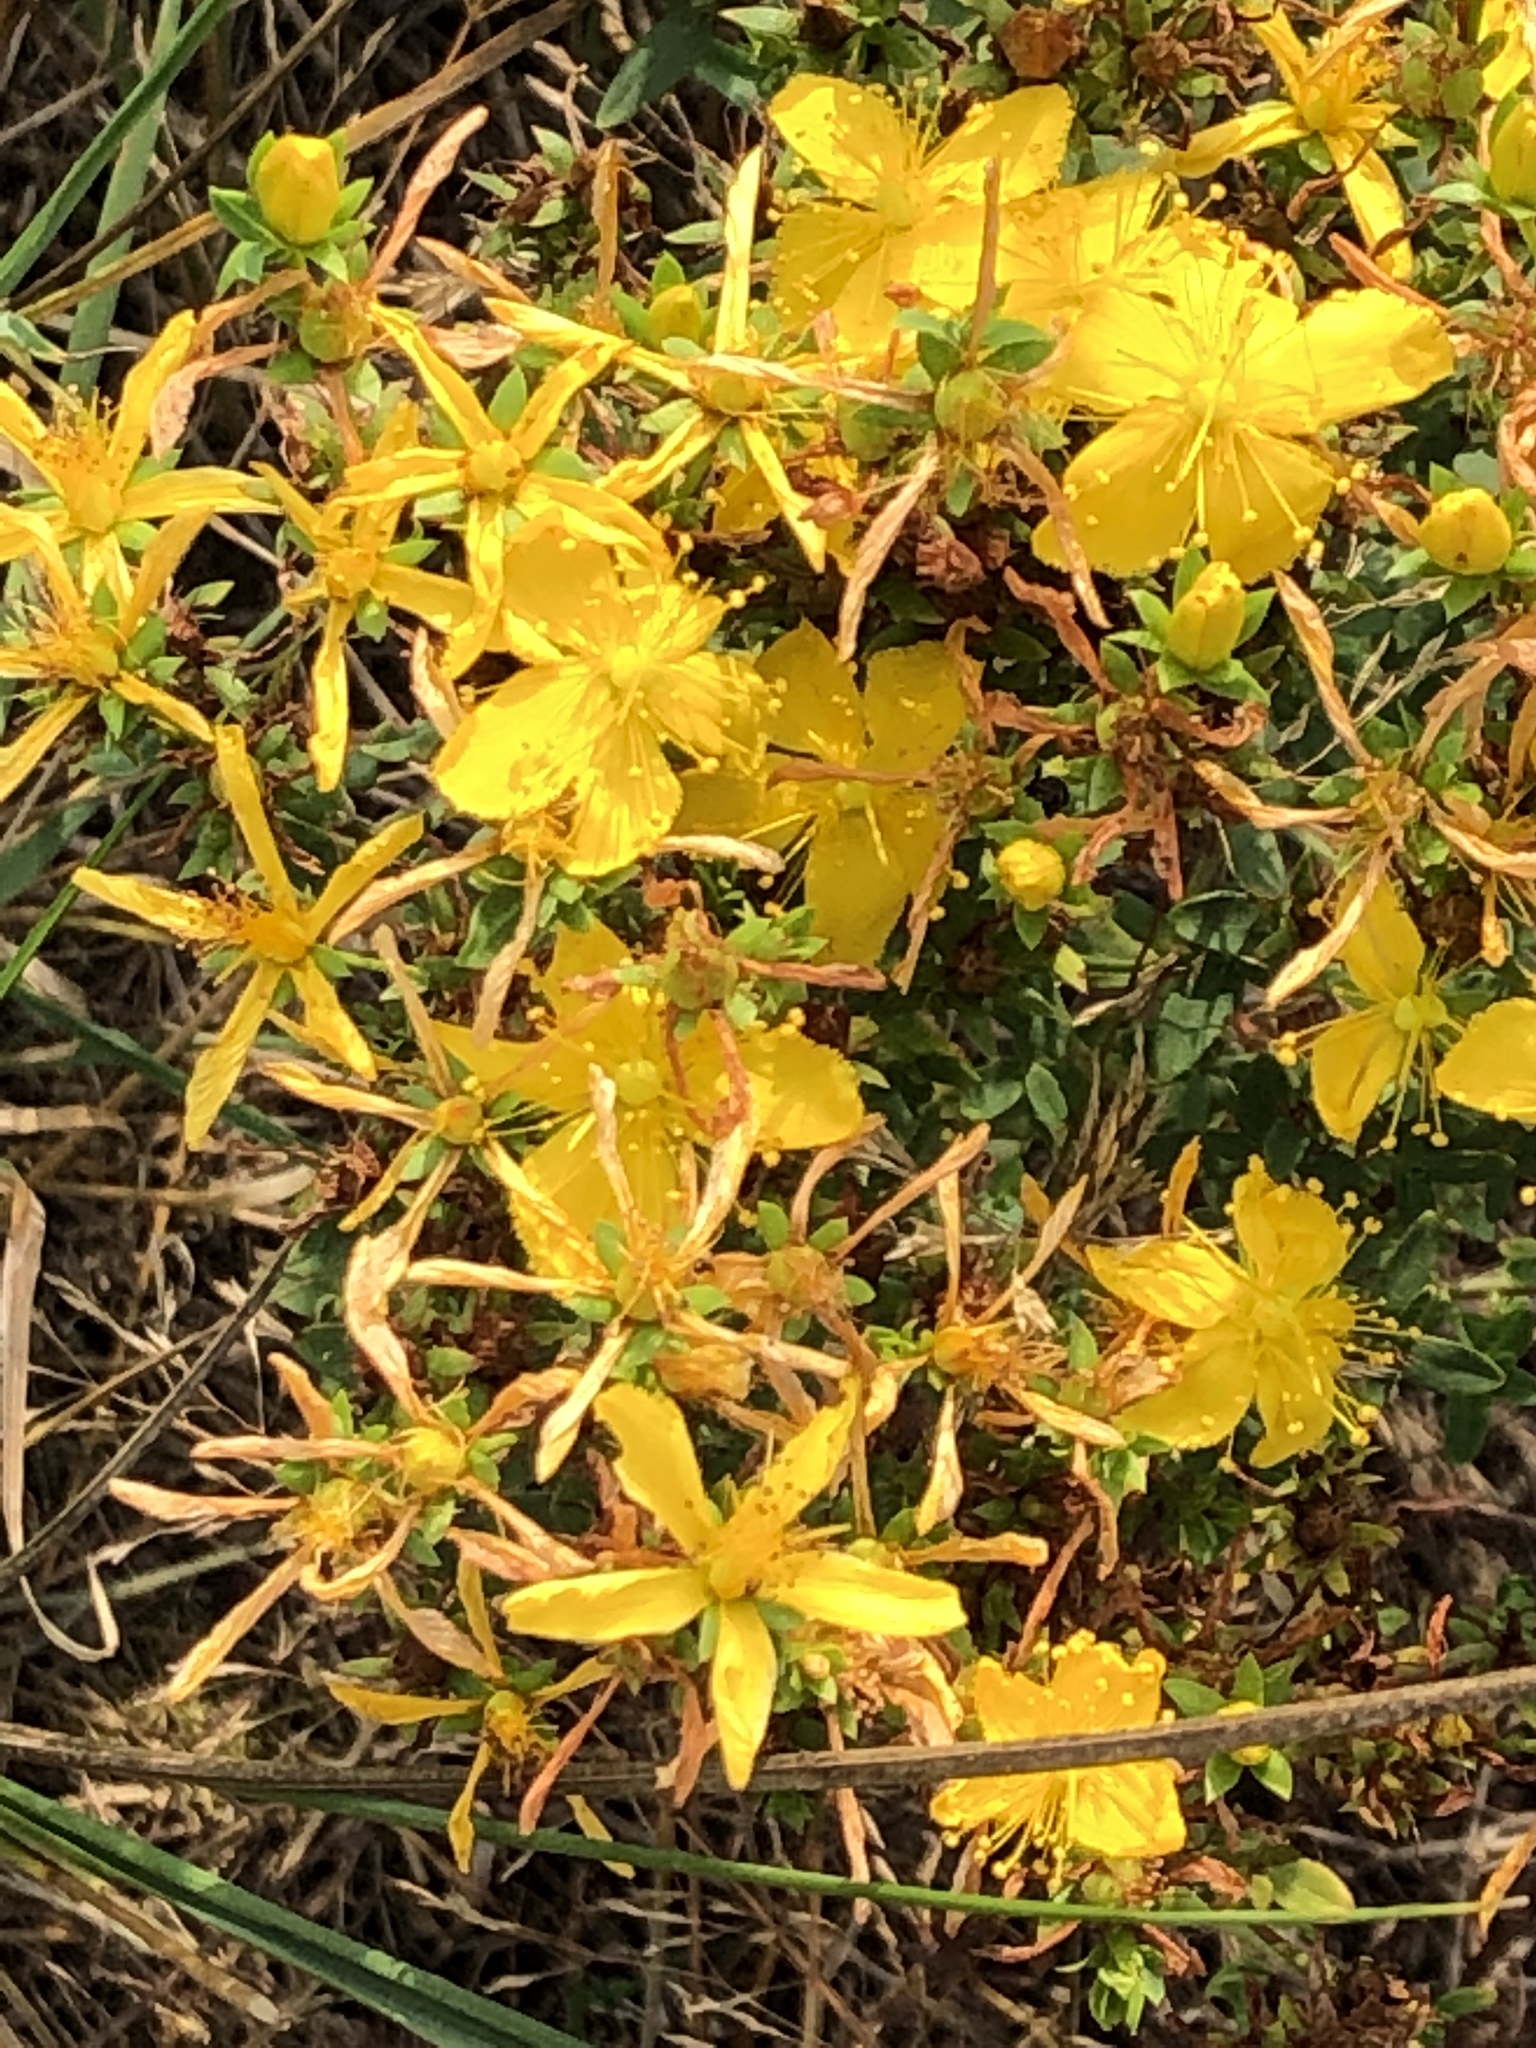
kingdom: Plantae
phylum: Tracheophyta
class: Magnoliopsida
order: Malpighiales
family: Hypericaceae
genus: Hypericum
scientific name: Hypericum perforatum
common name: Common st. johnswort
